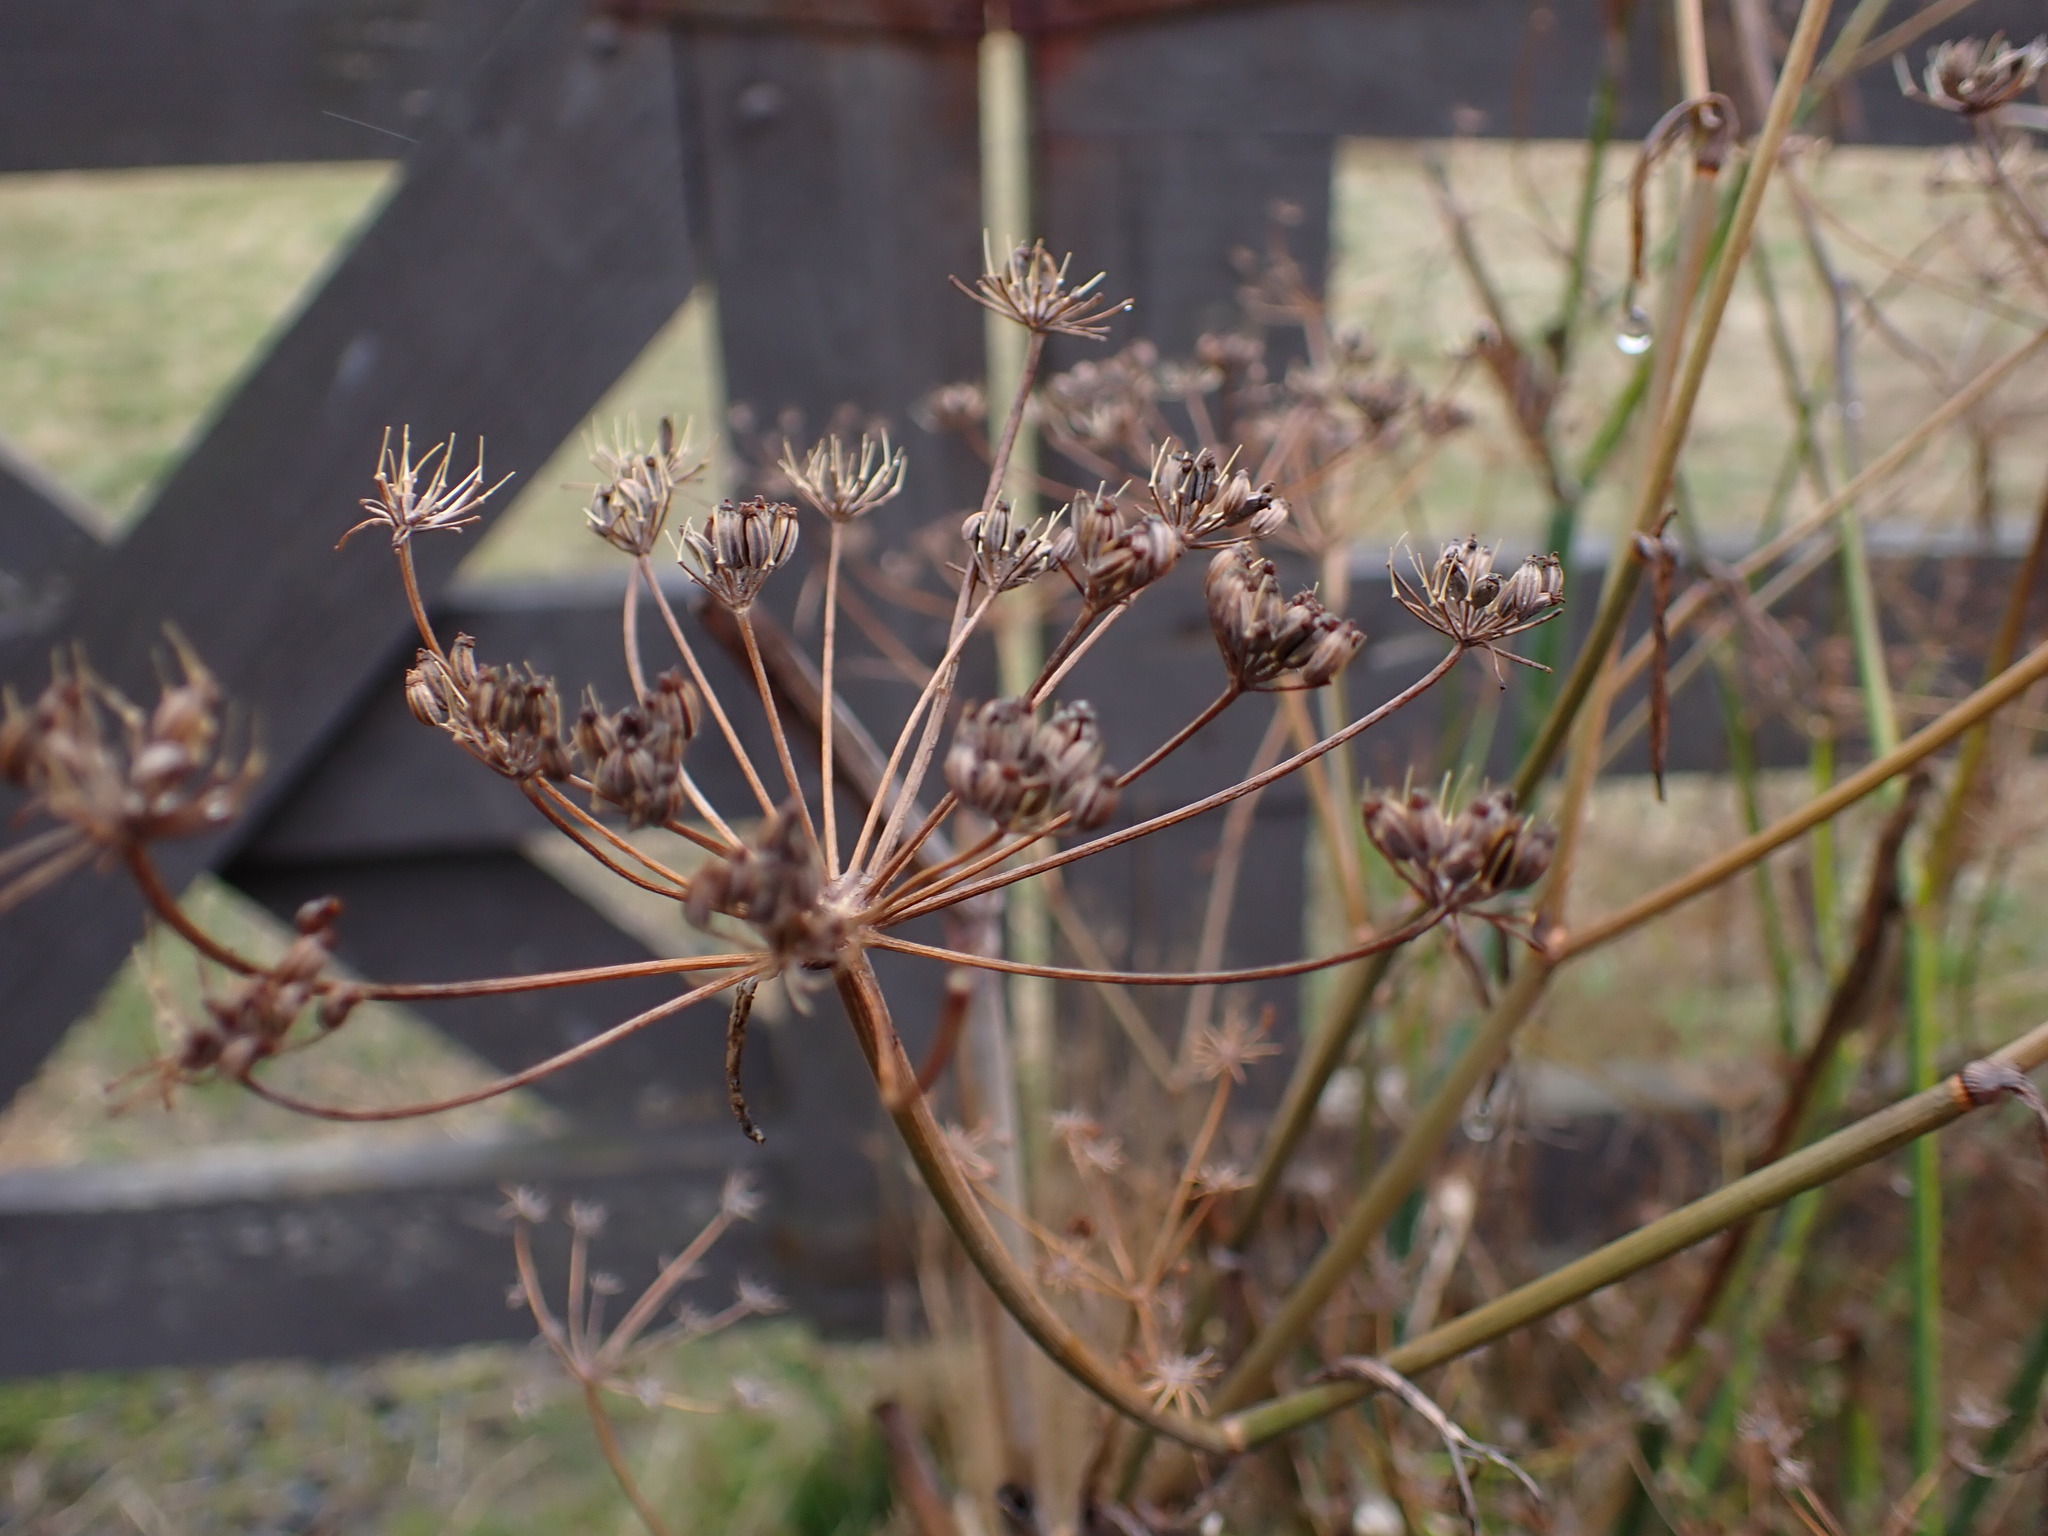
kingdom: Plantae
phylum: Tracheophyta
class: Magnoliopsida
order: Apiales
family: Apiaceae
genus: Foeniculum
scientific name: Foeniculum vulgare
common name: Fennel
